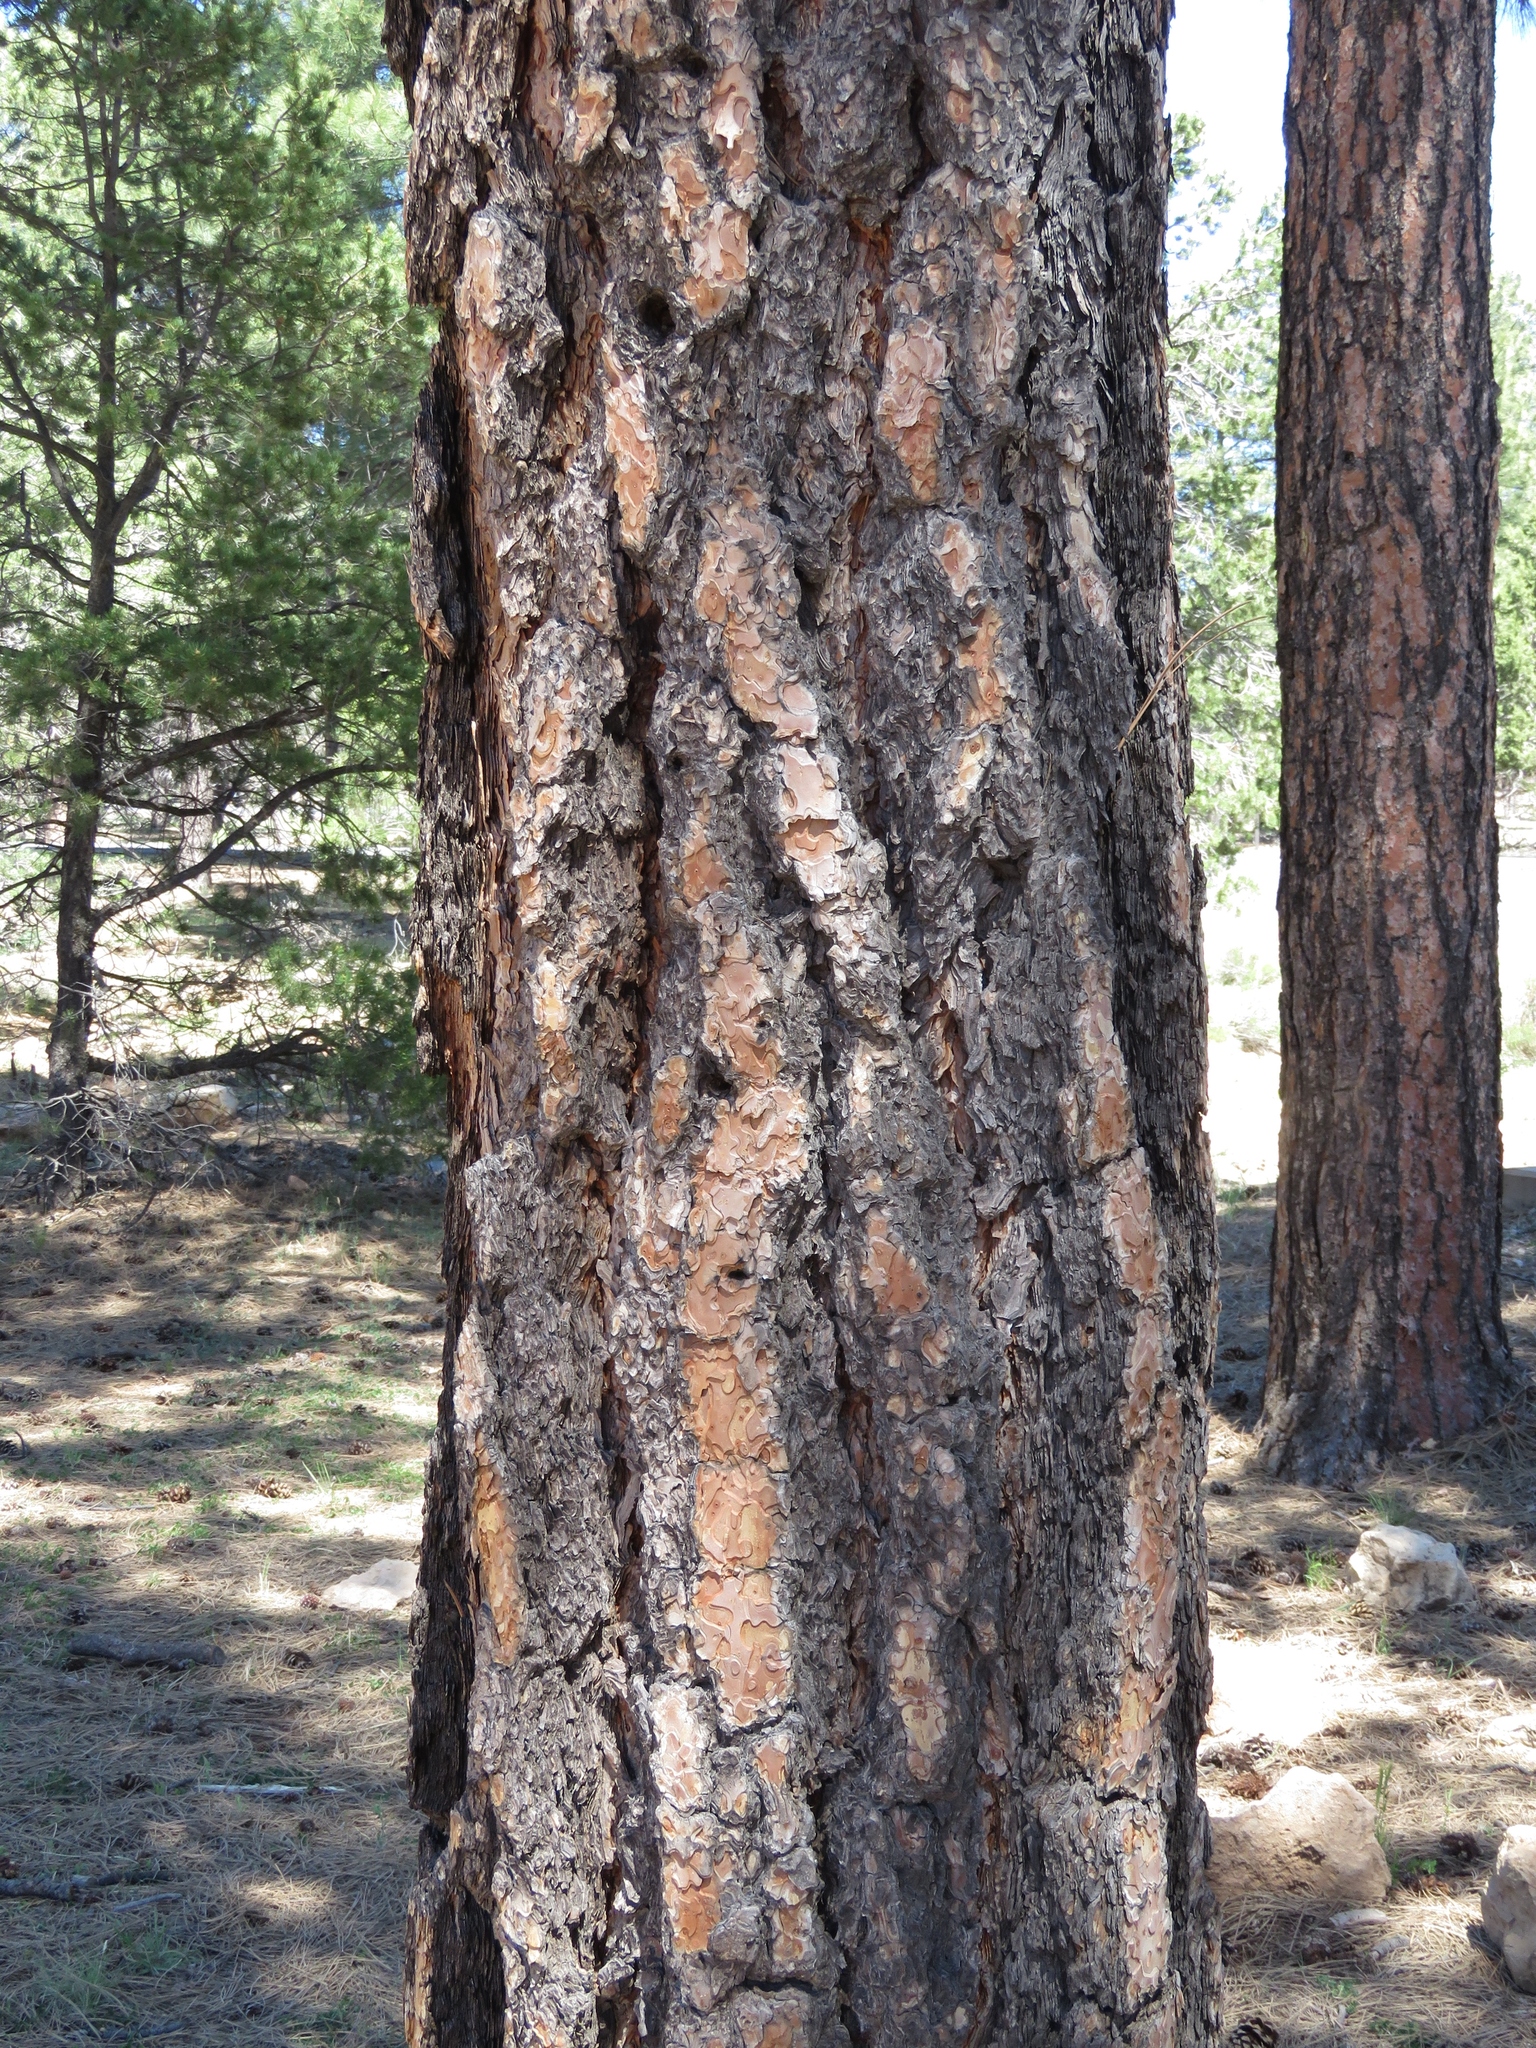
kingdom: Plantae
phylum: Tracheophyta
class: Pinopsida
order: Pinales
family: Pinaceae
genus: Pinus
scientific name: Pinus ponderosa
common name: Western yellow-pine
